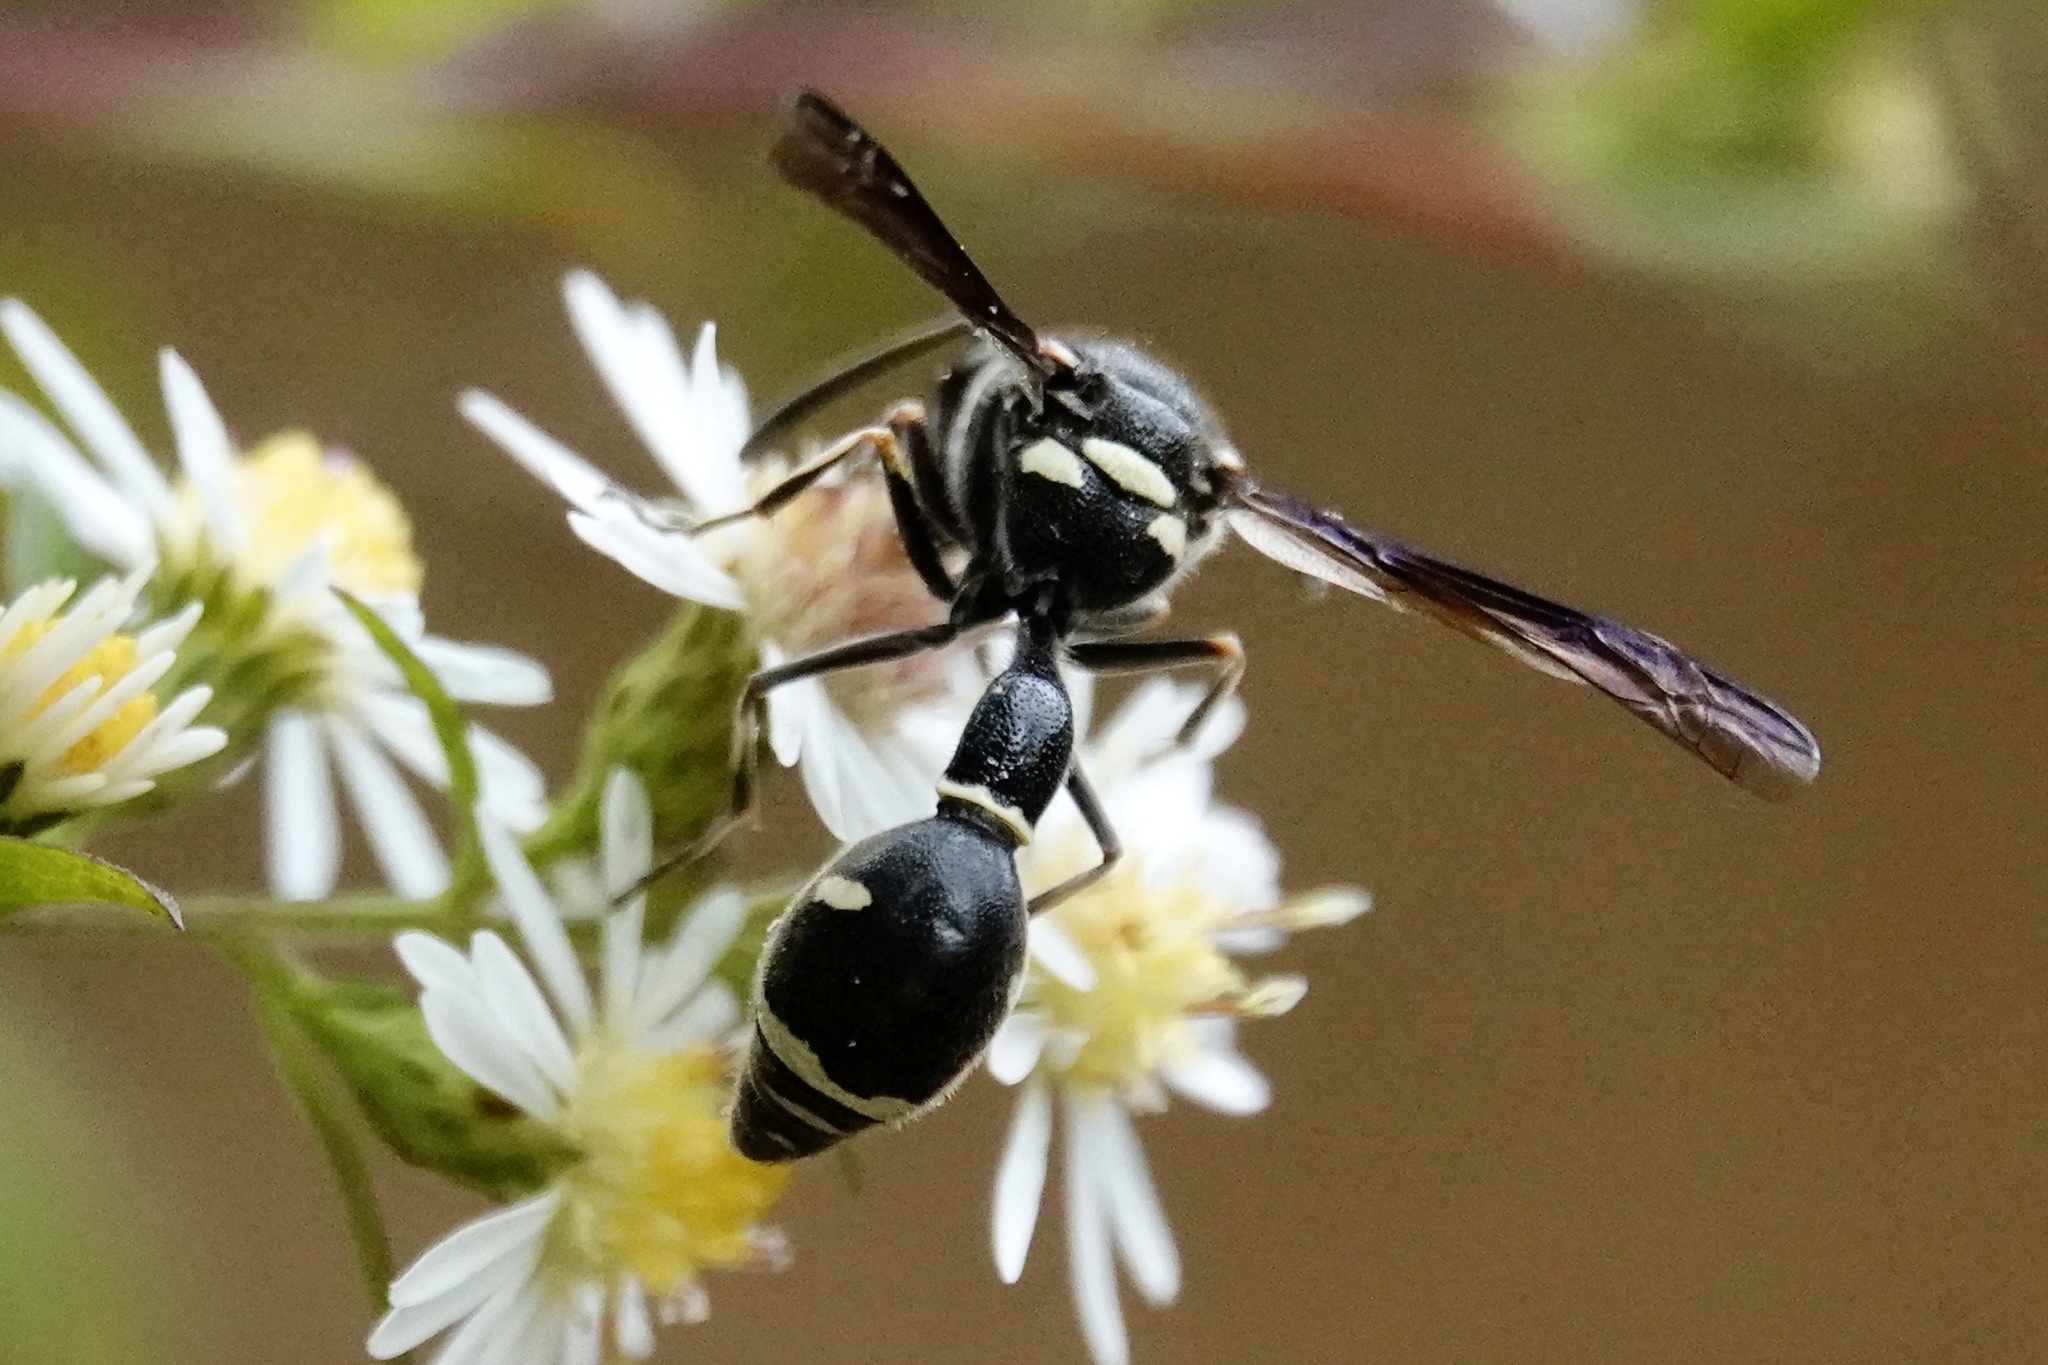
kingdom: Animalia
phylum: Arthropoda
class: Insecta
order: Hymenoptera
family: Vespidae
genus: Eumenes
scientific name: Eumenes fraternus
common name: Fraternal potter wasp
